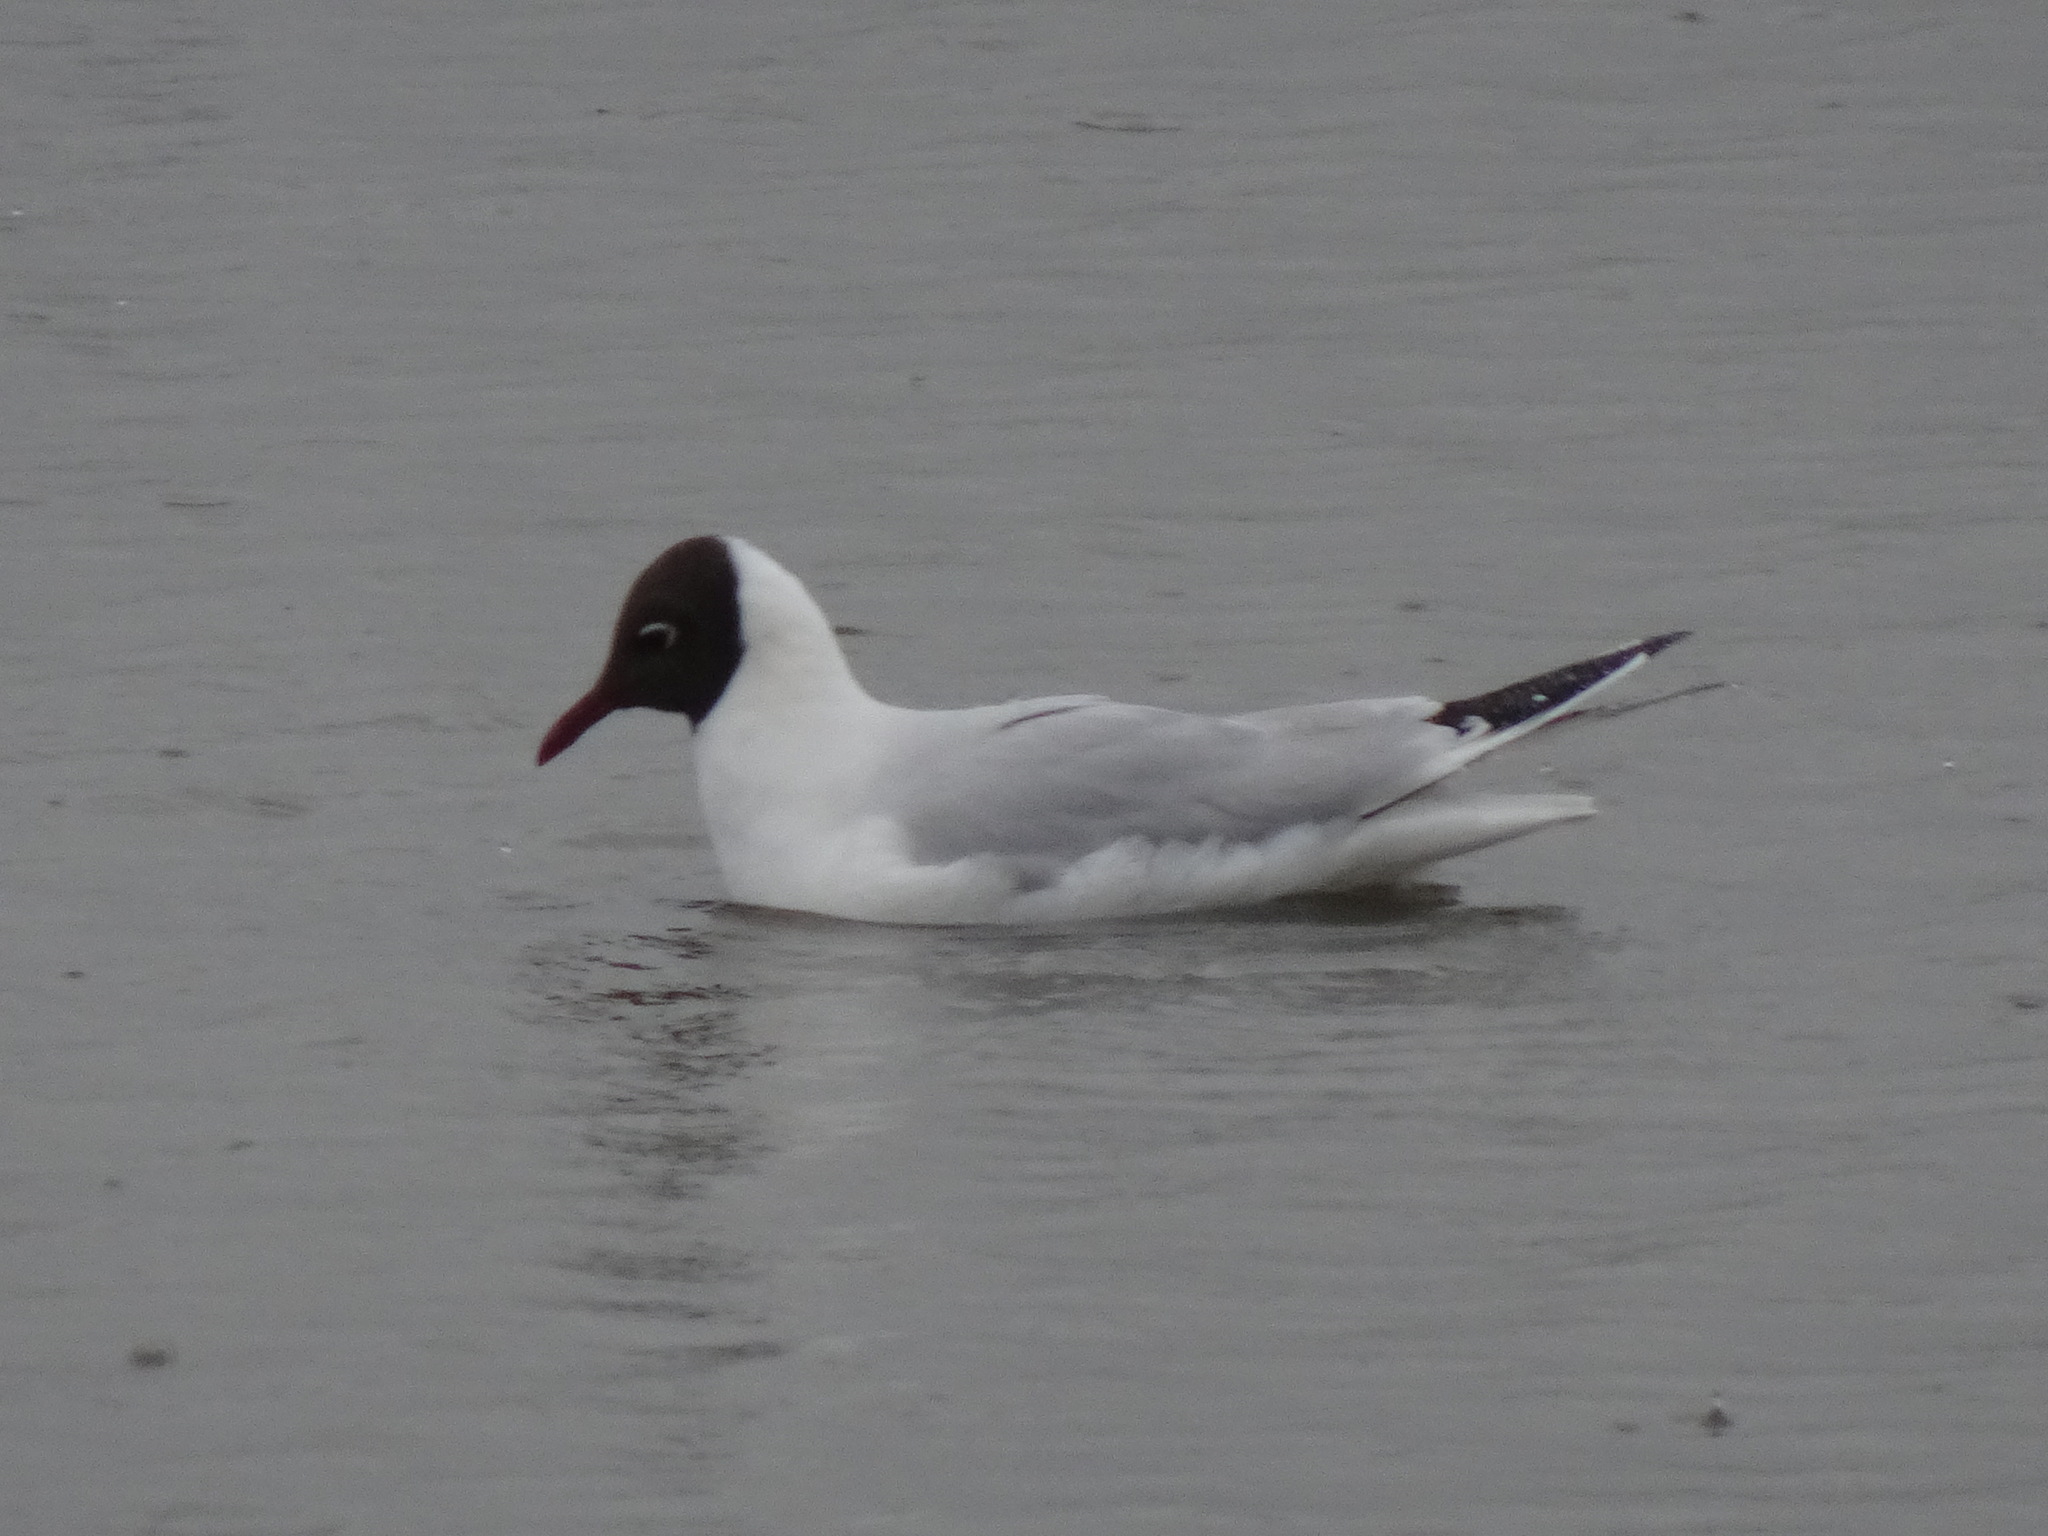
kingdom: Animalia
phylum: Chordata
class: Aves
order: Charadriiformes
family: Laridae
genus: Chroicocephalus
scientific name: Chroicocephalus ridibundus
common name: Black-headed gull
